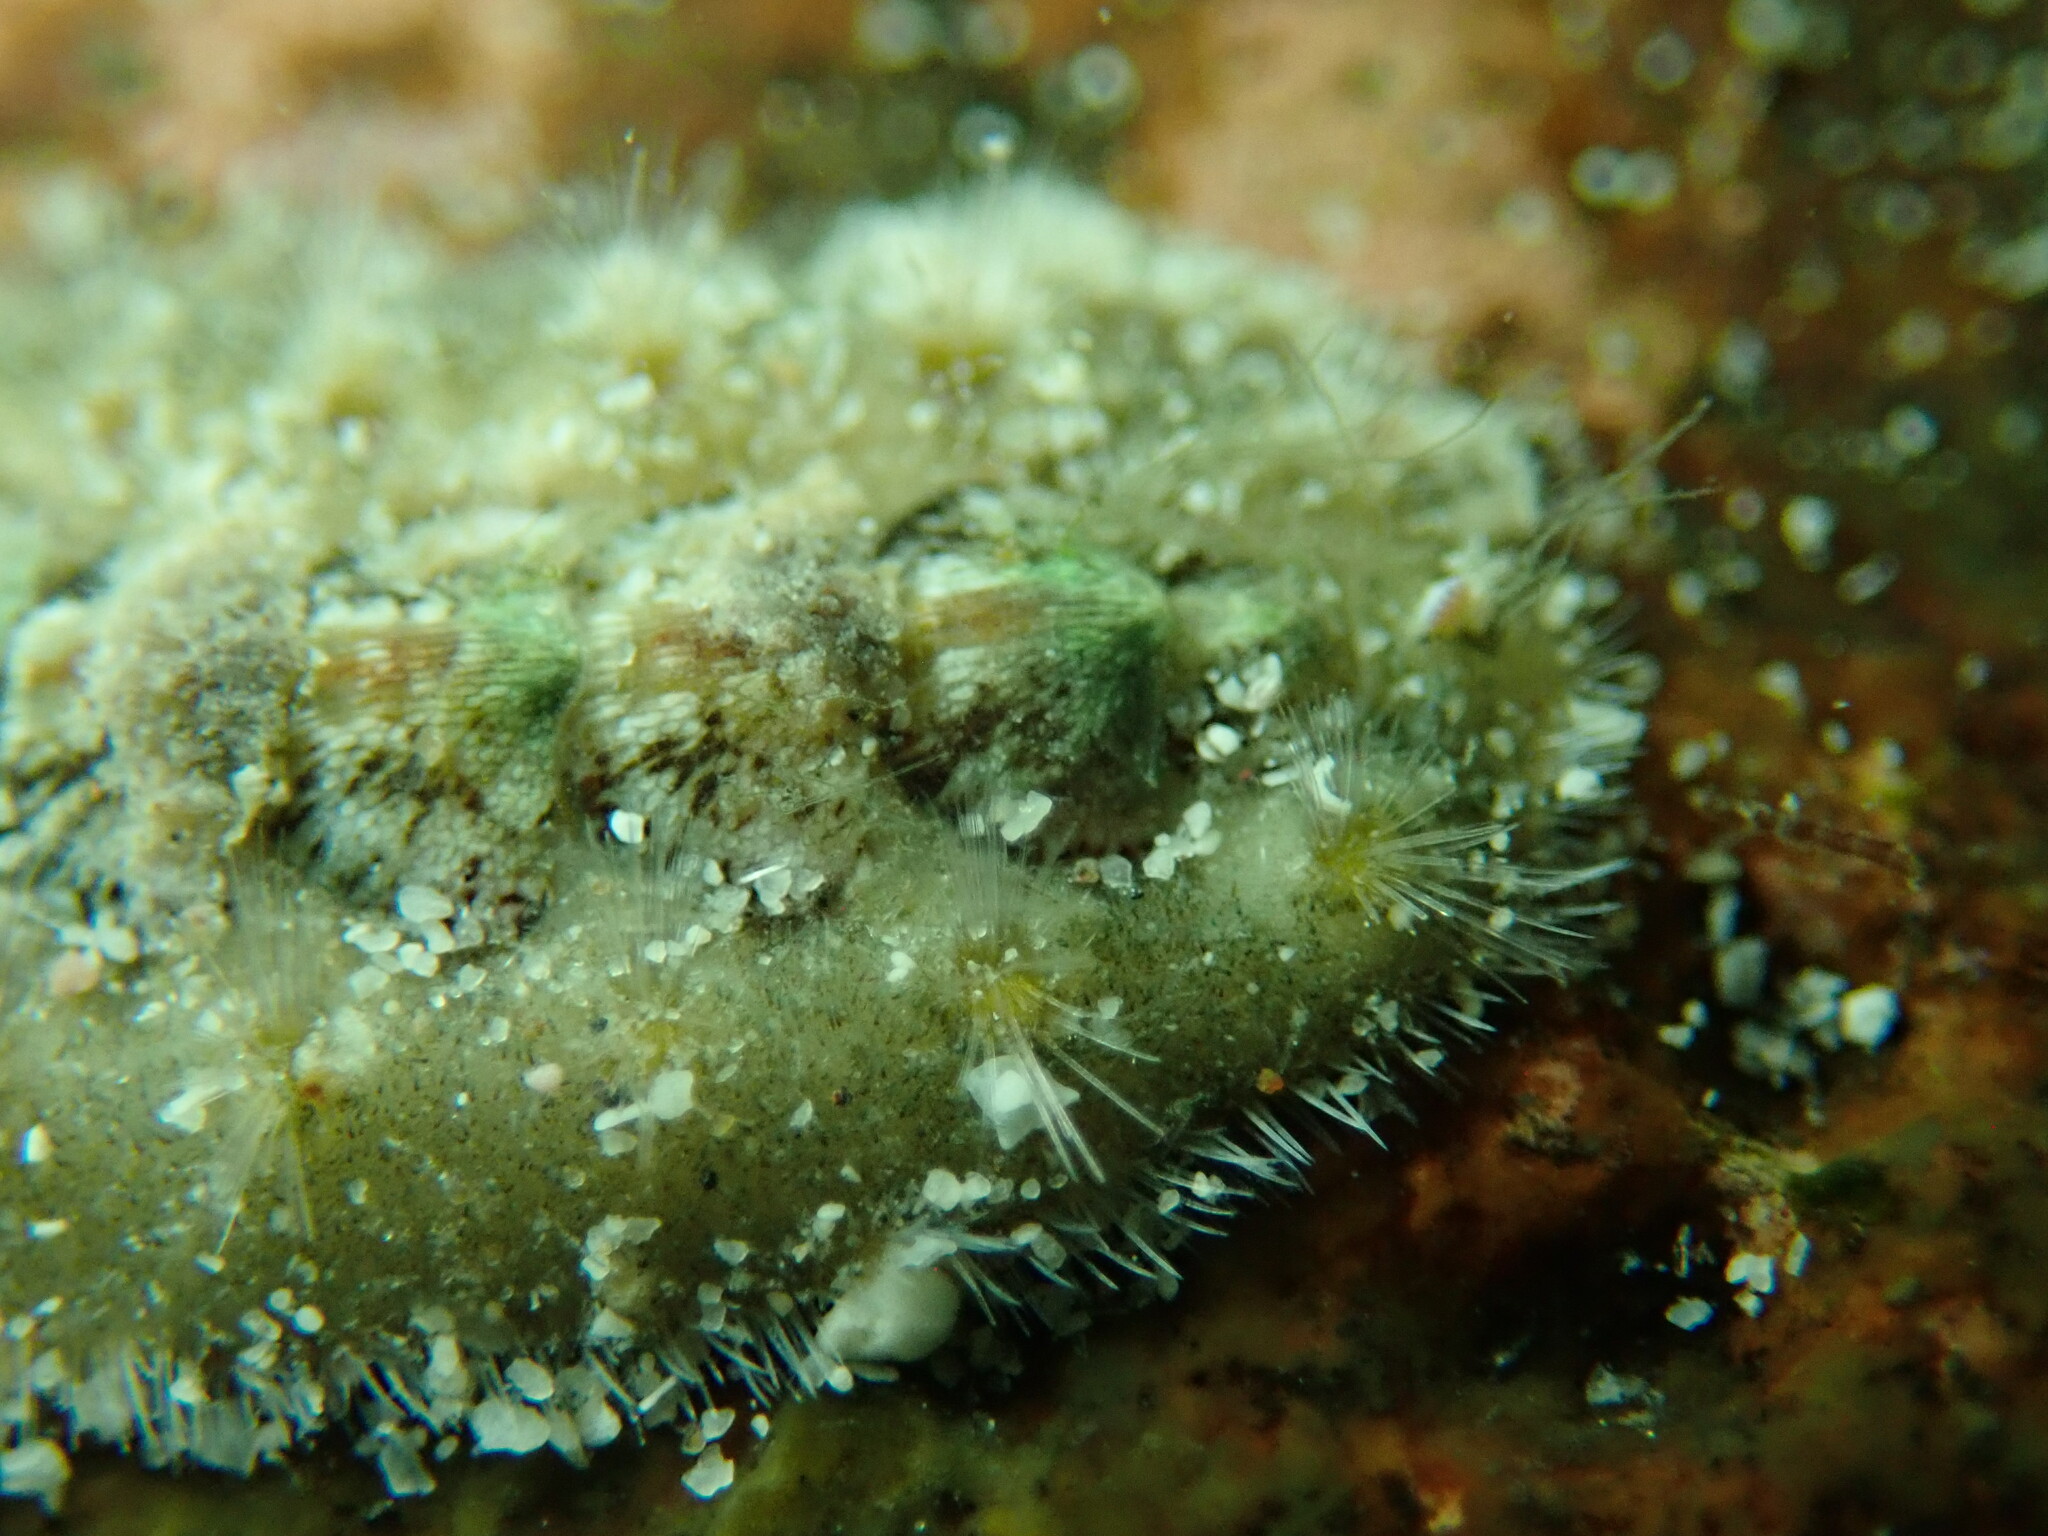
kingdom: Animalia
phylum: Mollusca
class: Polyplacophora
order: Chitonida
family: Acanthochitonidae
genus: Acanthochitona
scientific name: Acanthochitona avicula
